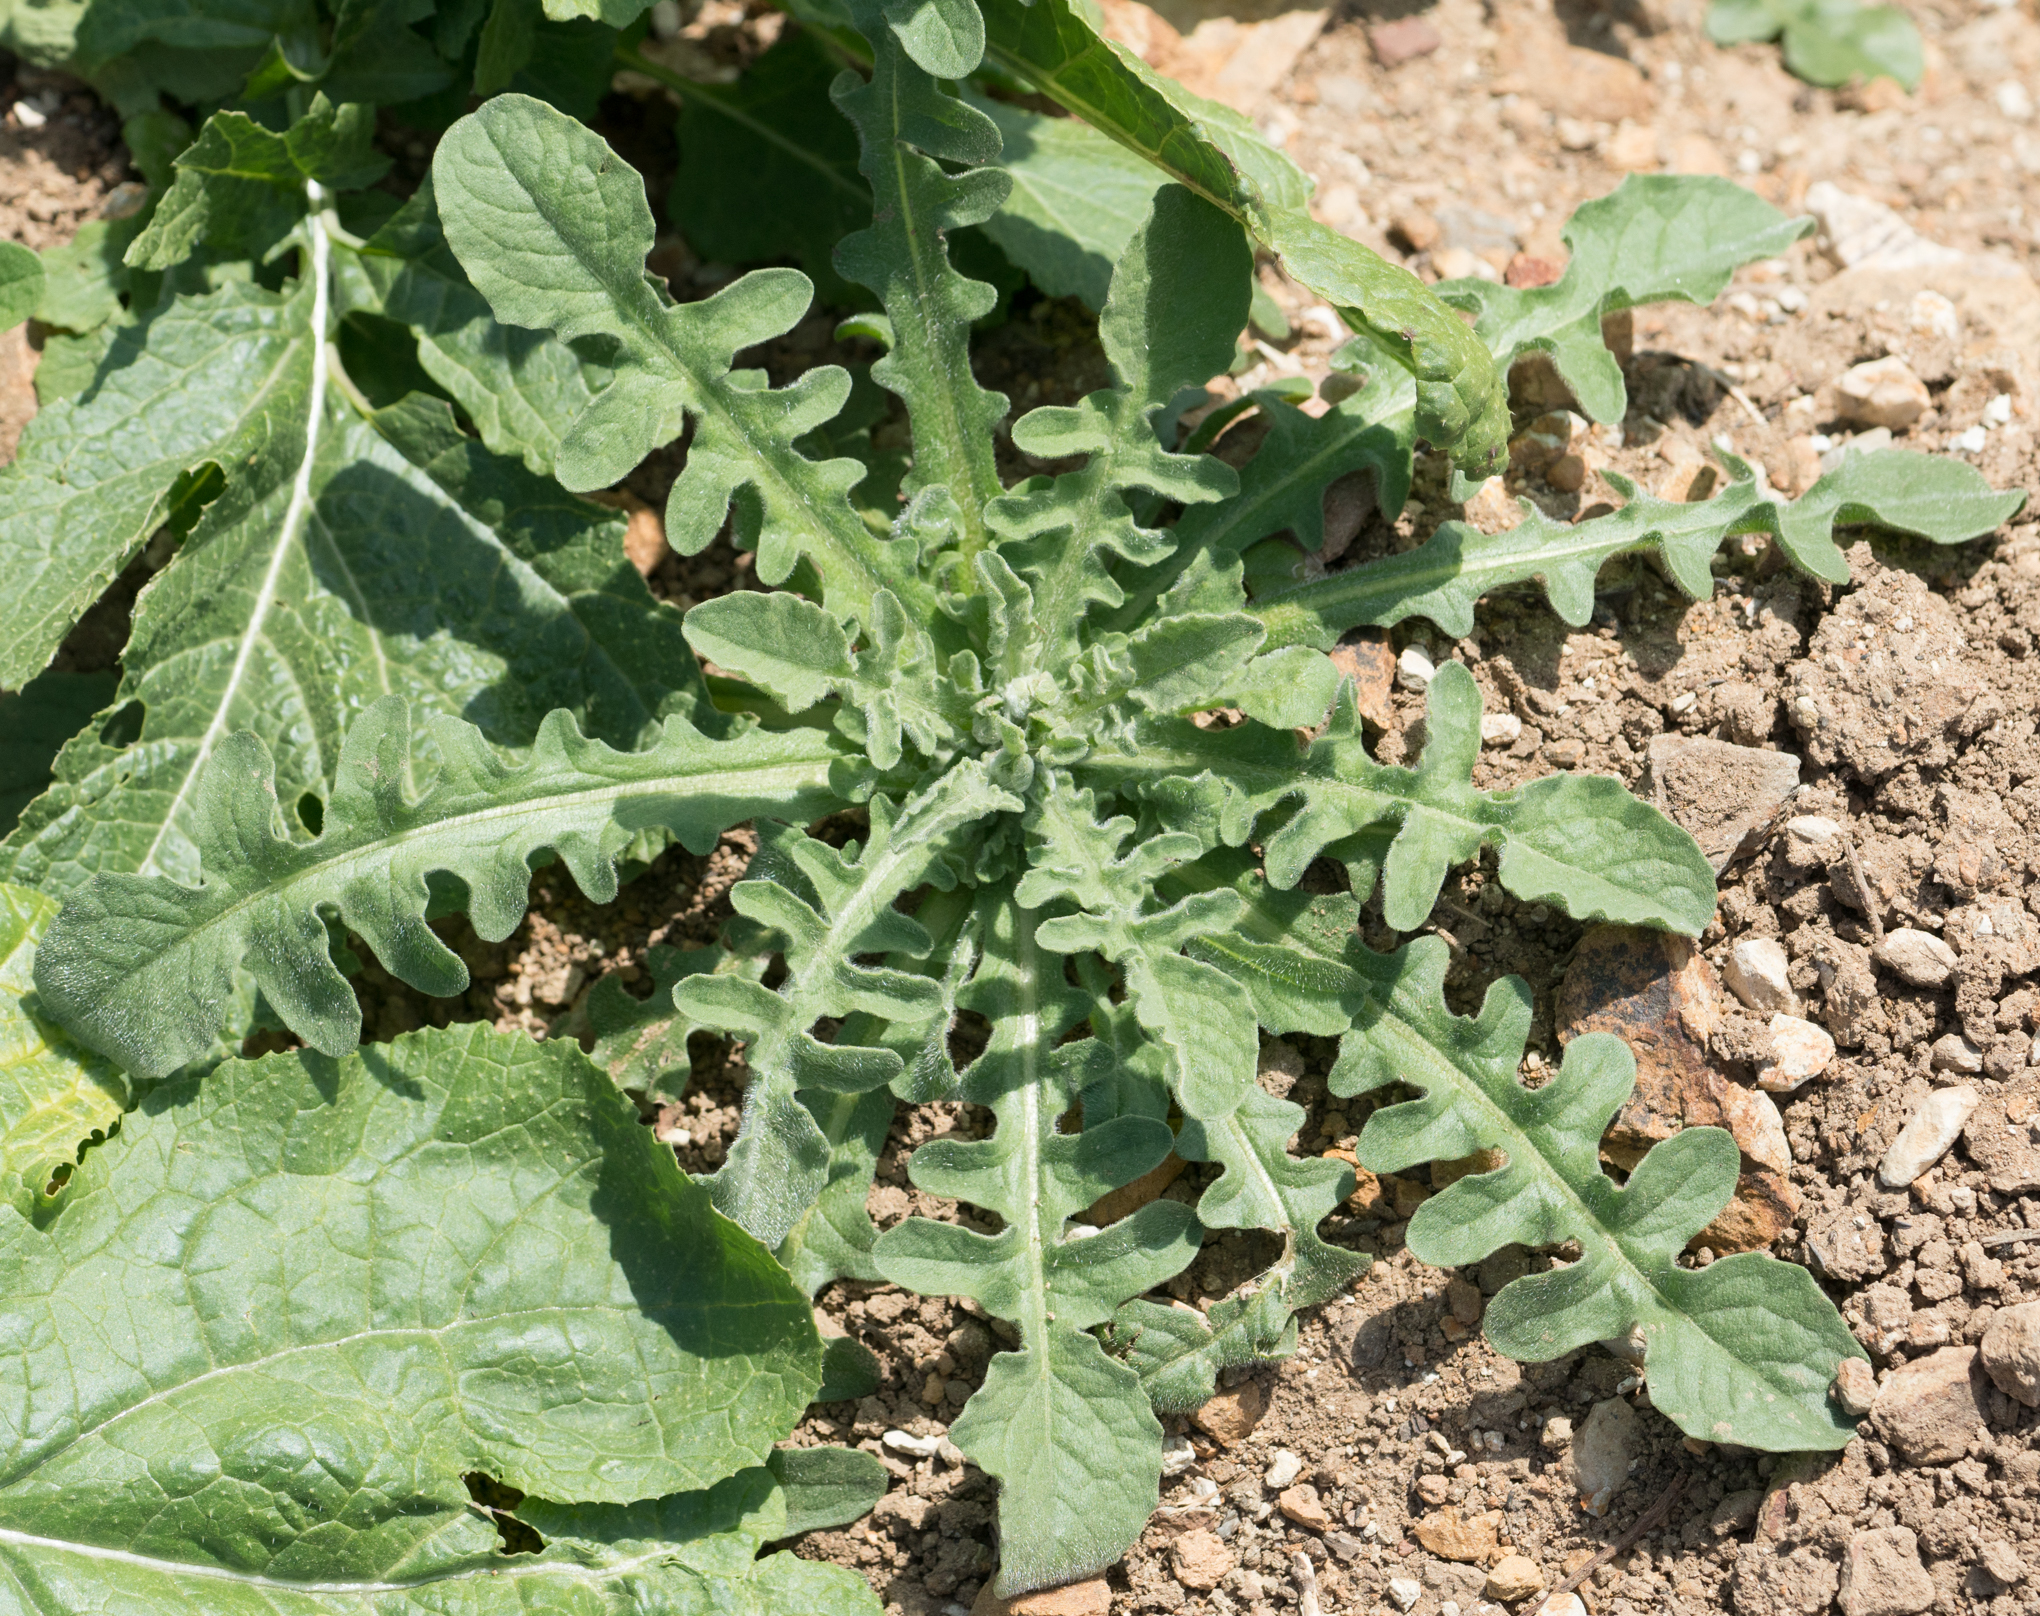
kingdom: Plantae
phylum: Tracheophyta
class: Magnoliopsida
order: Asterales
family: Asteraceae
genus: Centaurea
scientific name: Centaurea melitensis
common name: Maltese star-thistle
